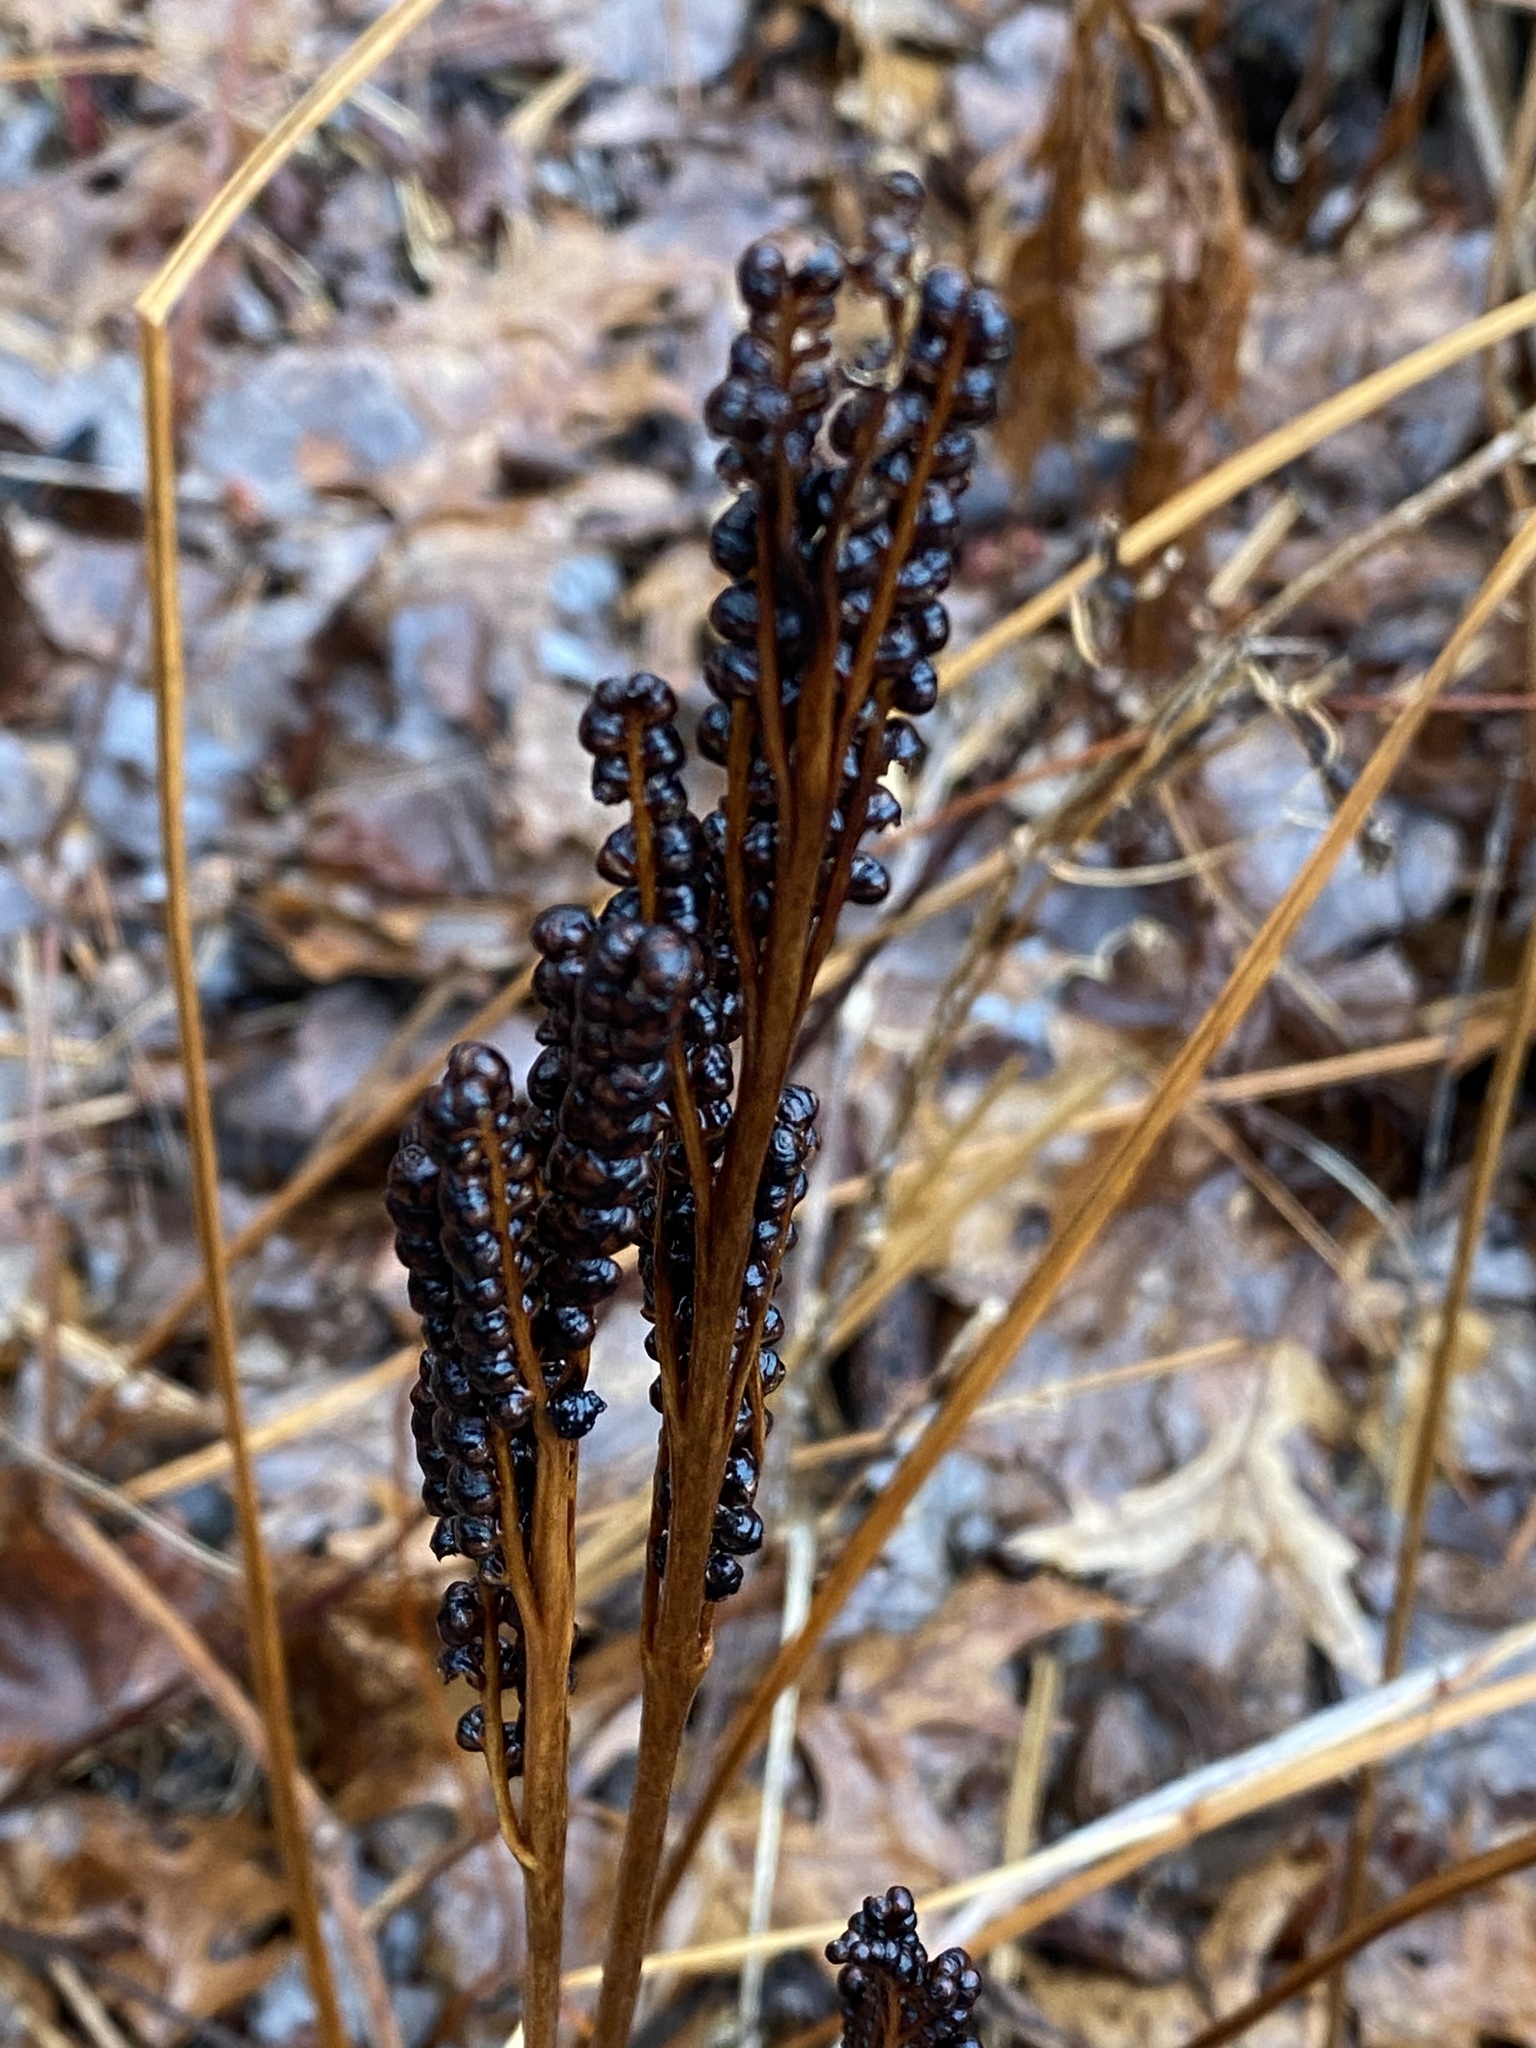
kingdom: Plantae
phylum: Tracheophyta
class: Polypodiopsida
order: Polypodiales
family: Onocleaceae
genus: Onoclea
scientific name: Onoclea sensibilis
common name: Sensitive fern
